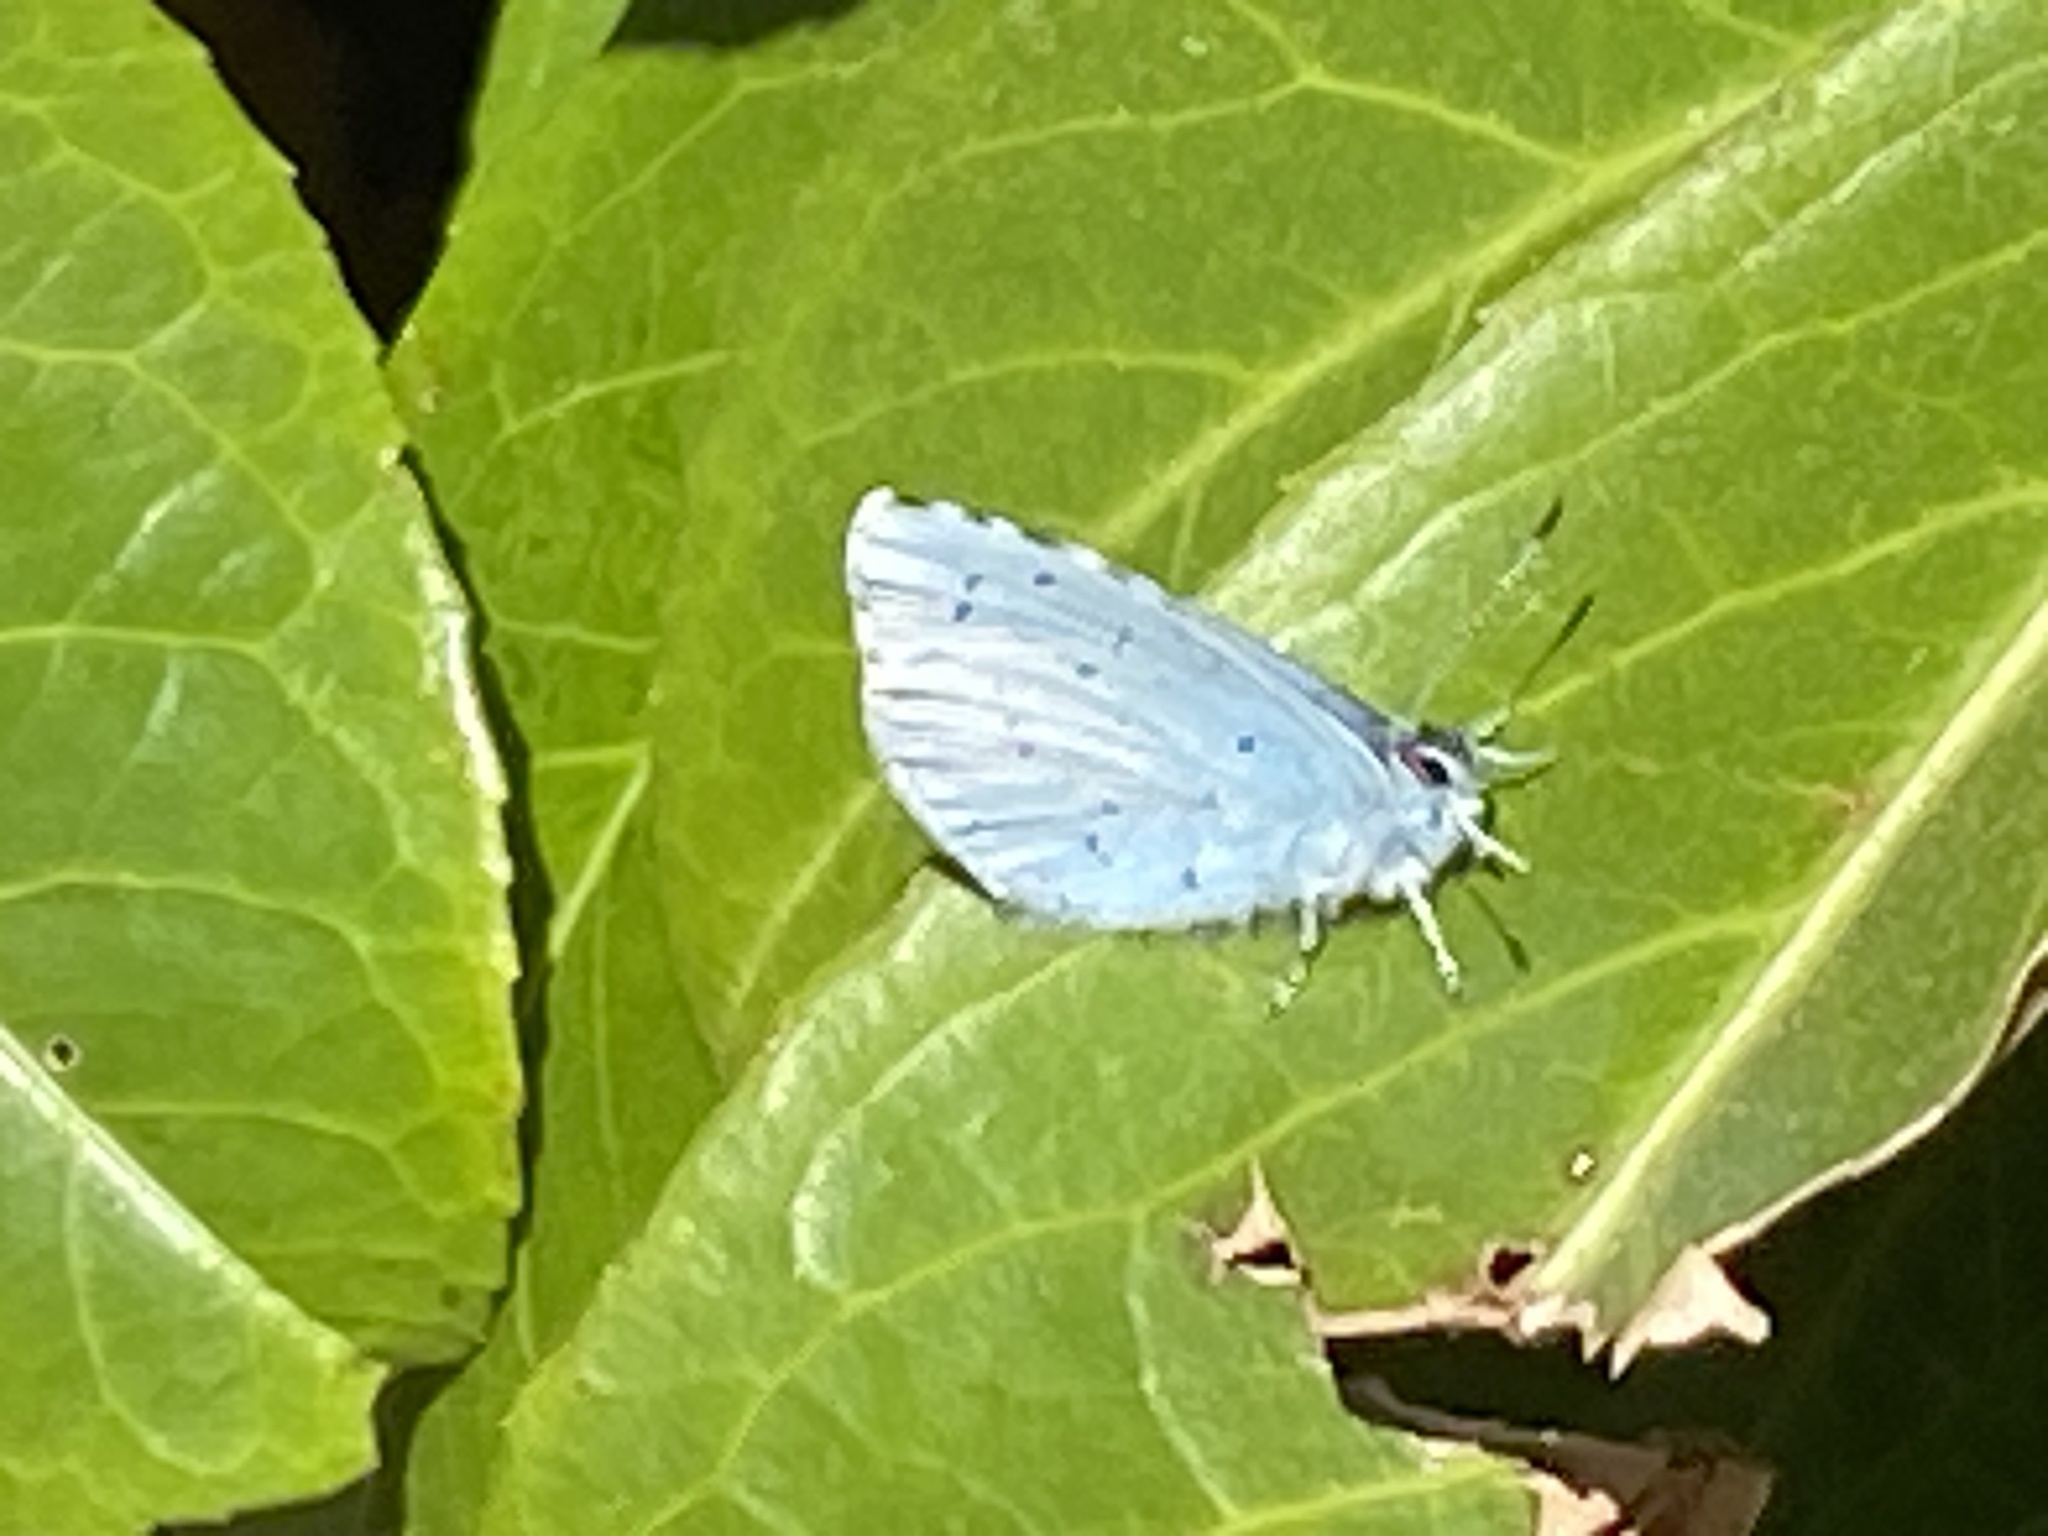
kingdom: Animalia
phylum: Arthropoda
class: Insecta
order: Lepidoptera
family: Lycaenidae
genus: Celastrina
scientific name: Celastrina argiolus
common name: Holly blue
